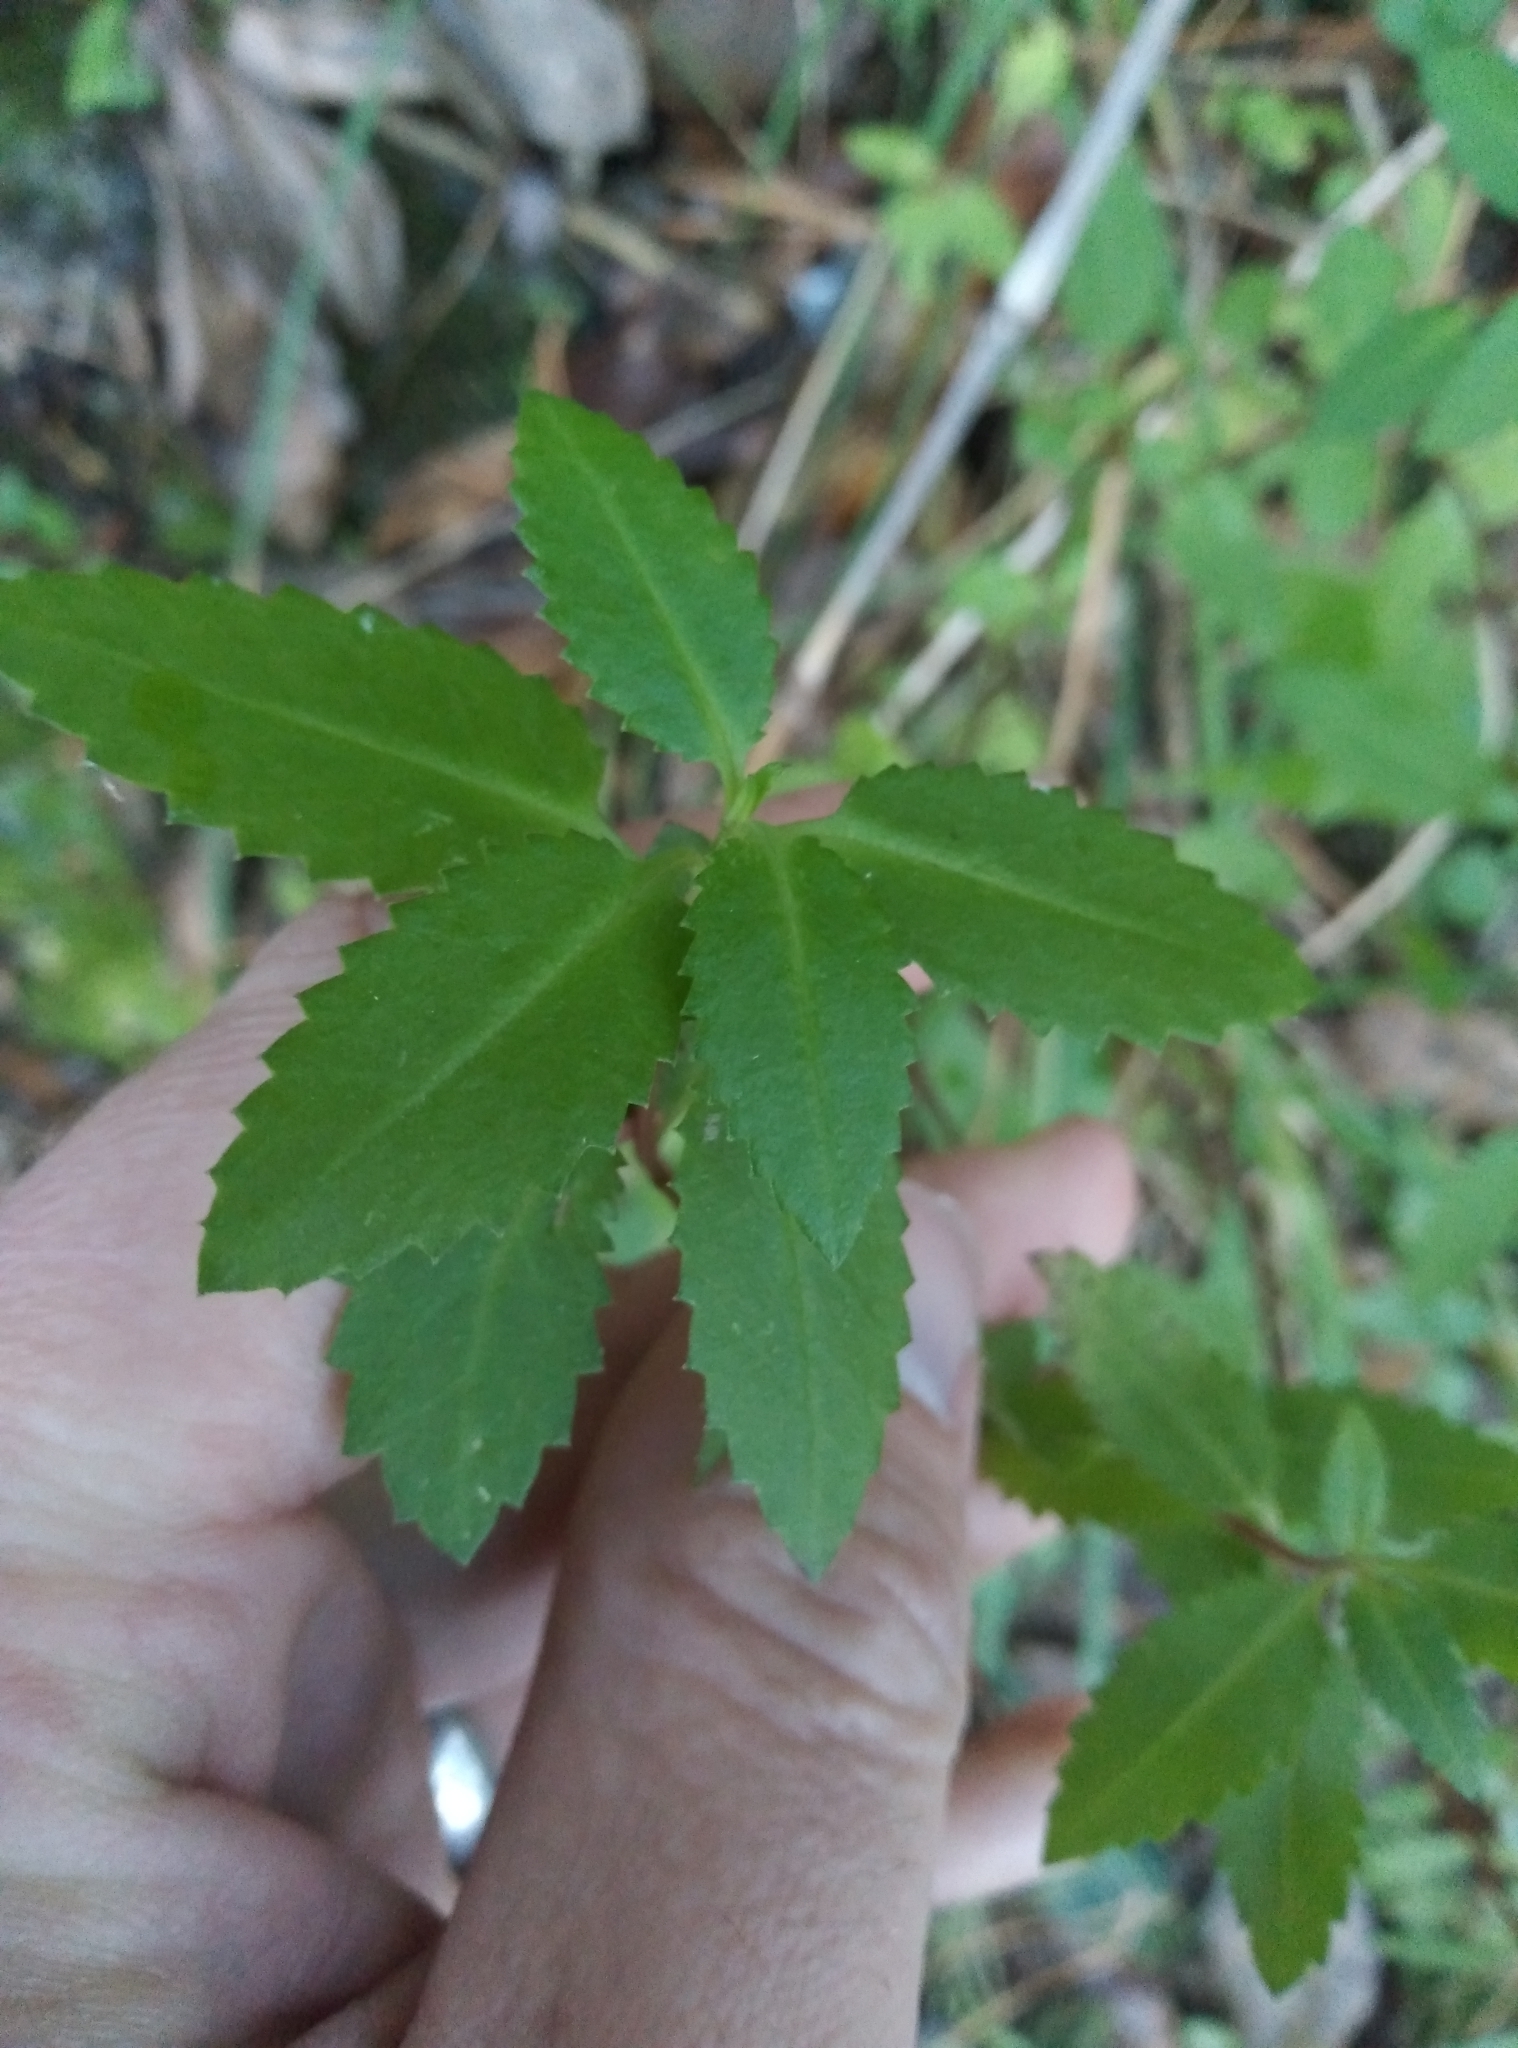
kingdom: Plantae
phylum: Tracheophyta
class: Magnoliopsida
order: Saxifragales
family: Haloragaceae
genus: Haloragis
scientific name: Haloragis erecta
